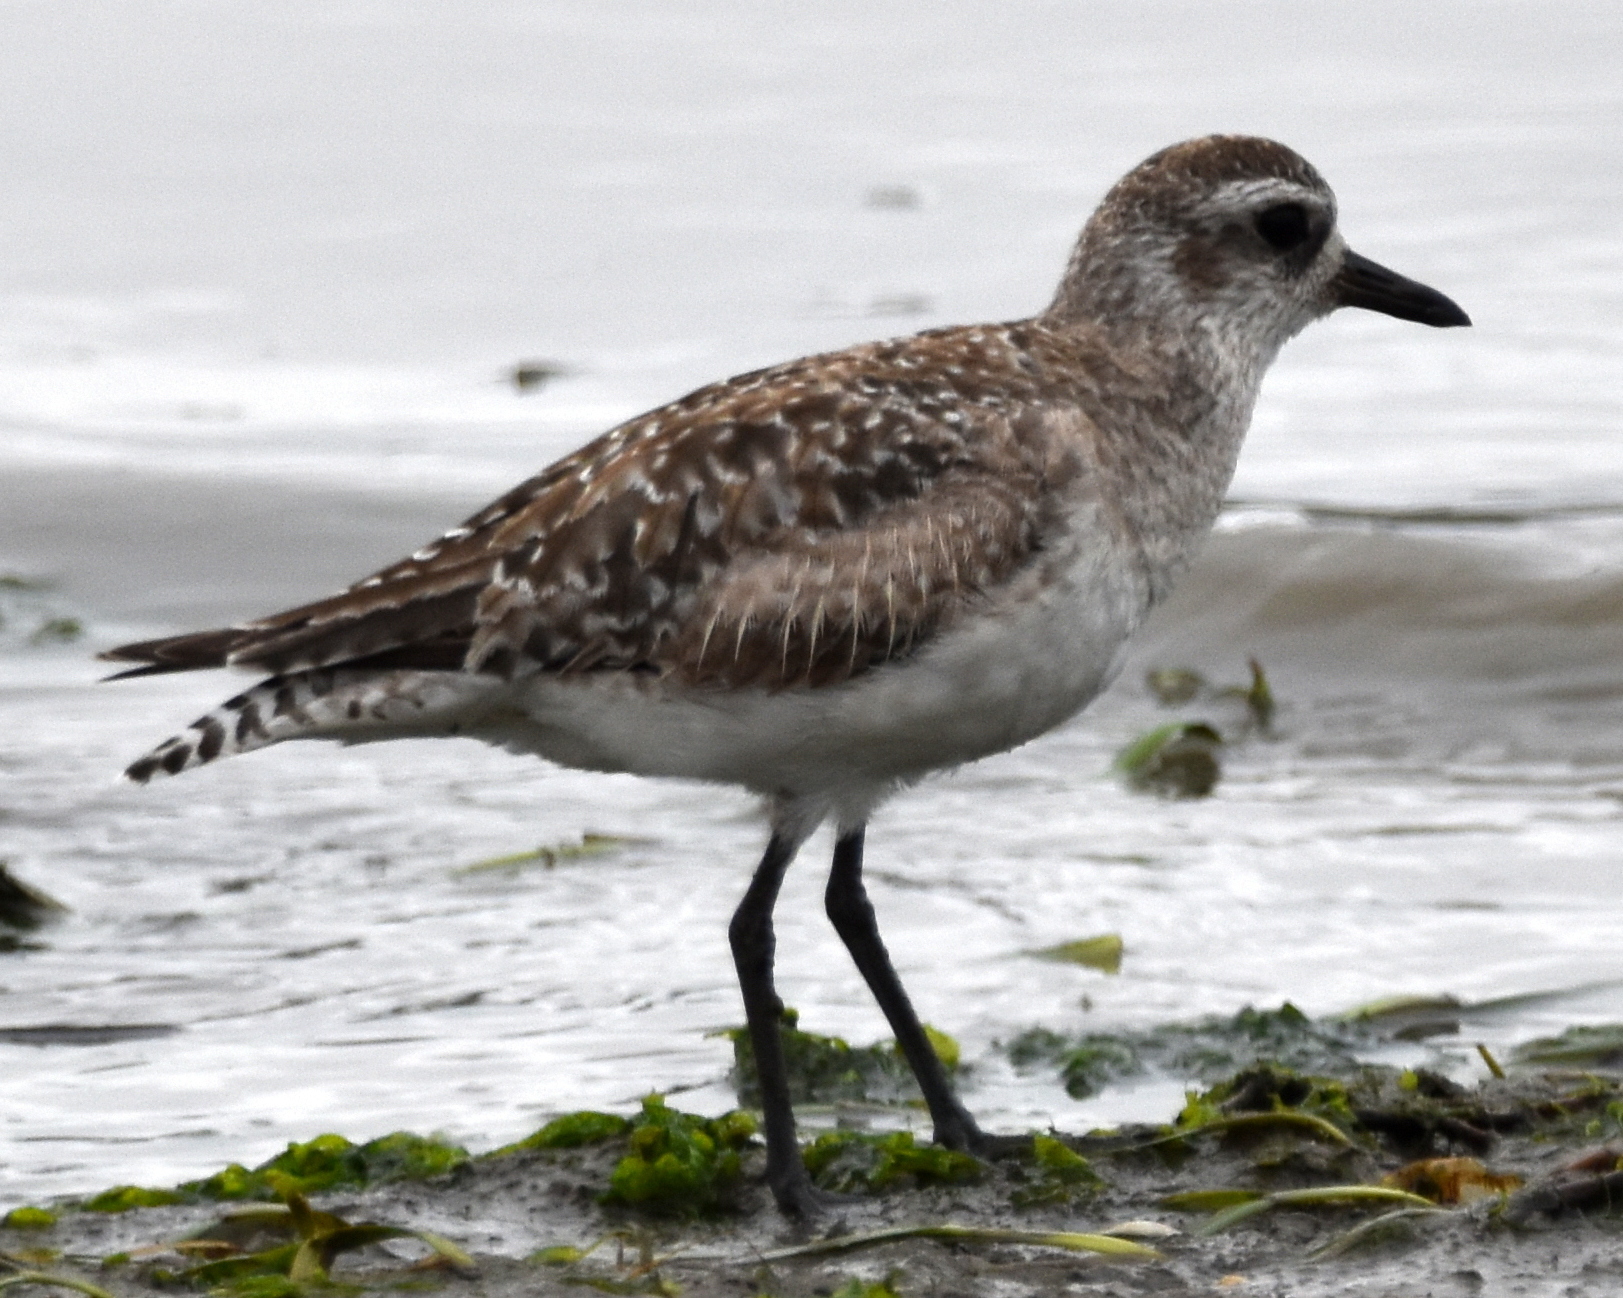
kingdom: Animalia
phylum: Chordata
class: Aves
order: Charadriiformes
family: Charadriidae
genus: Pluvialis
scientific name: Pluvialis squatarola
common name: Grey plover
